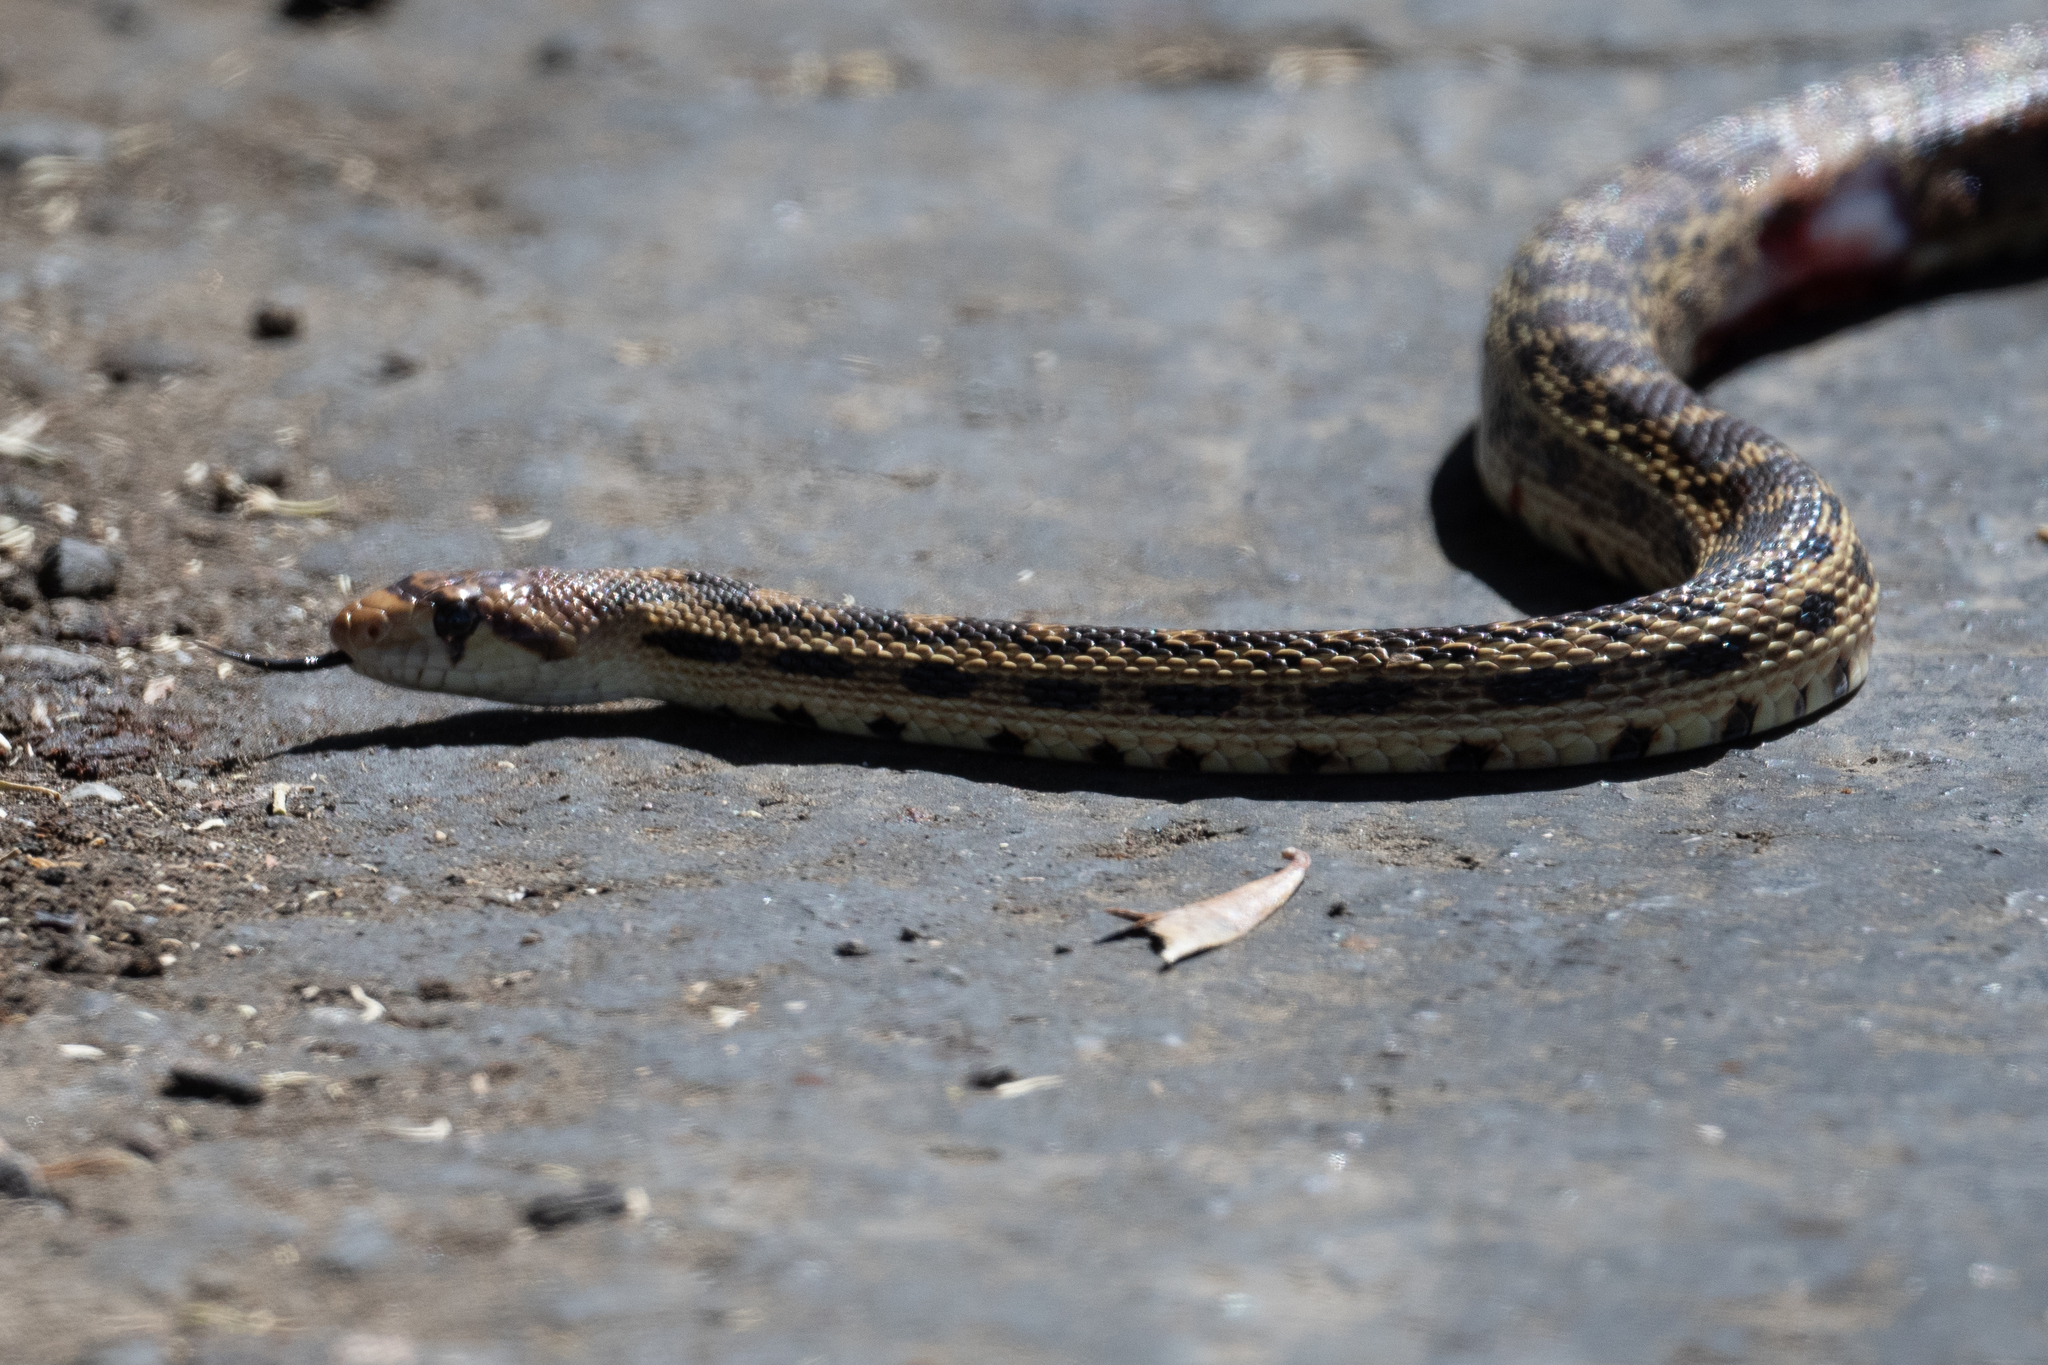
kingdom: Animalia
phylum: Chordata
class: Squamata
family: Colubridae
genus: Pituophis
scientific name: Pituophis catenifer
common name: Gopher snake
